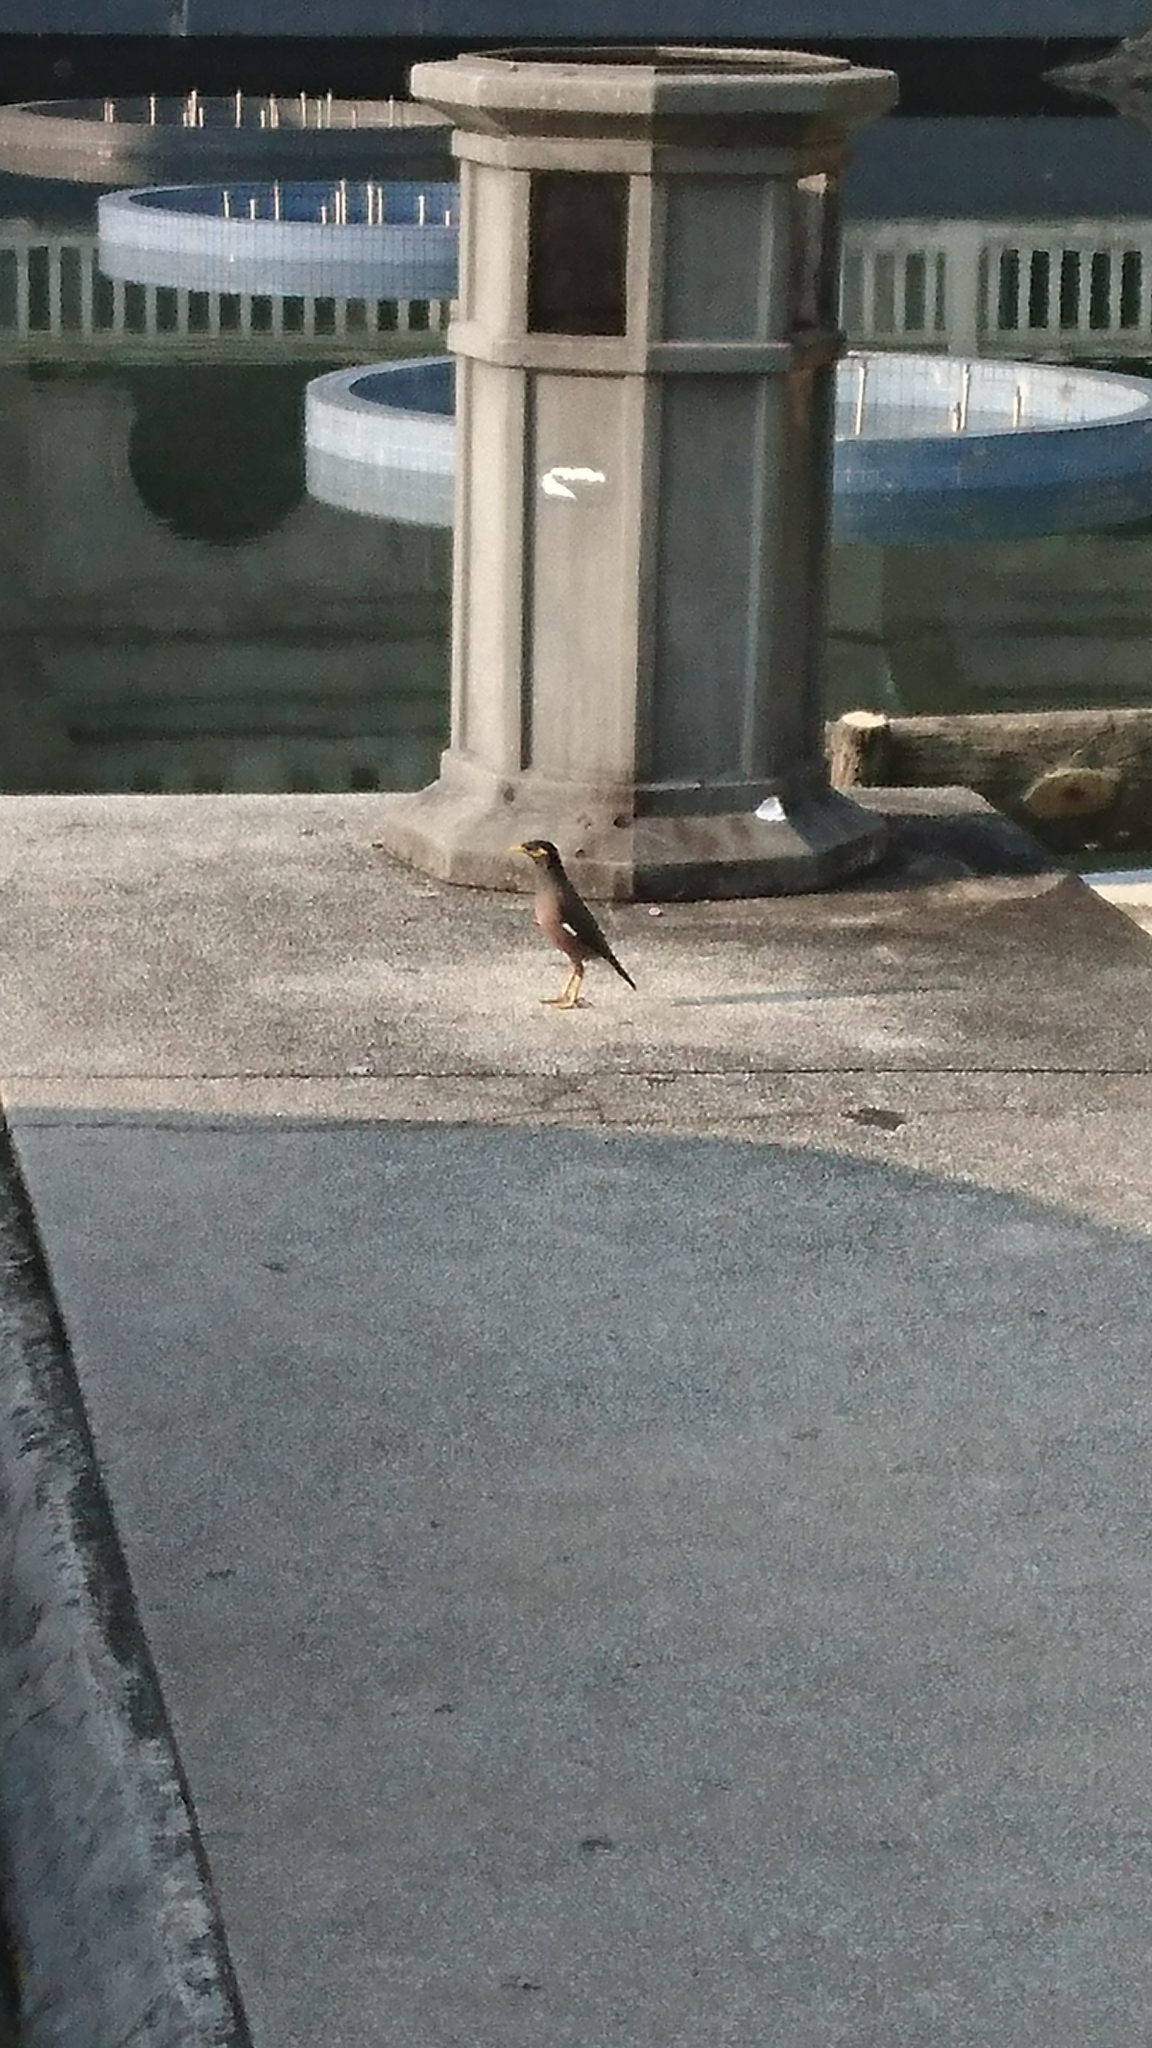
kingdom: Animalia
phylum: Chordata
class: Aves
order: Passeriformes
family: Sturnidae
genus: Acridotheres
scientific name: Acridotheres tristis
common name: Common myna
